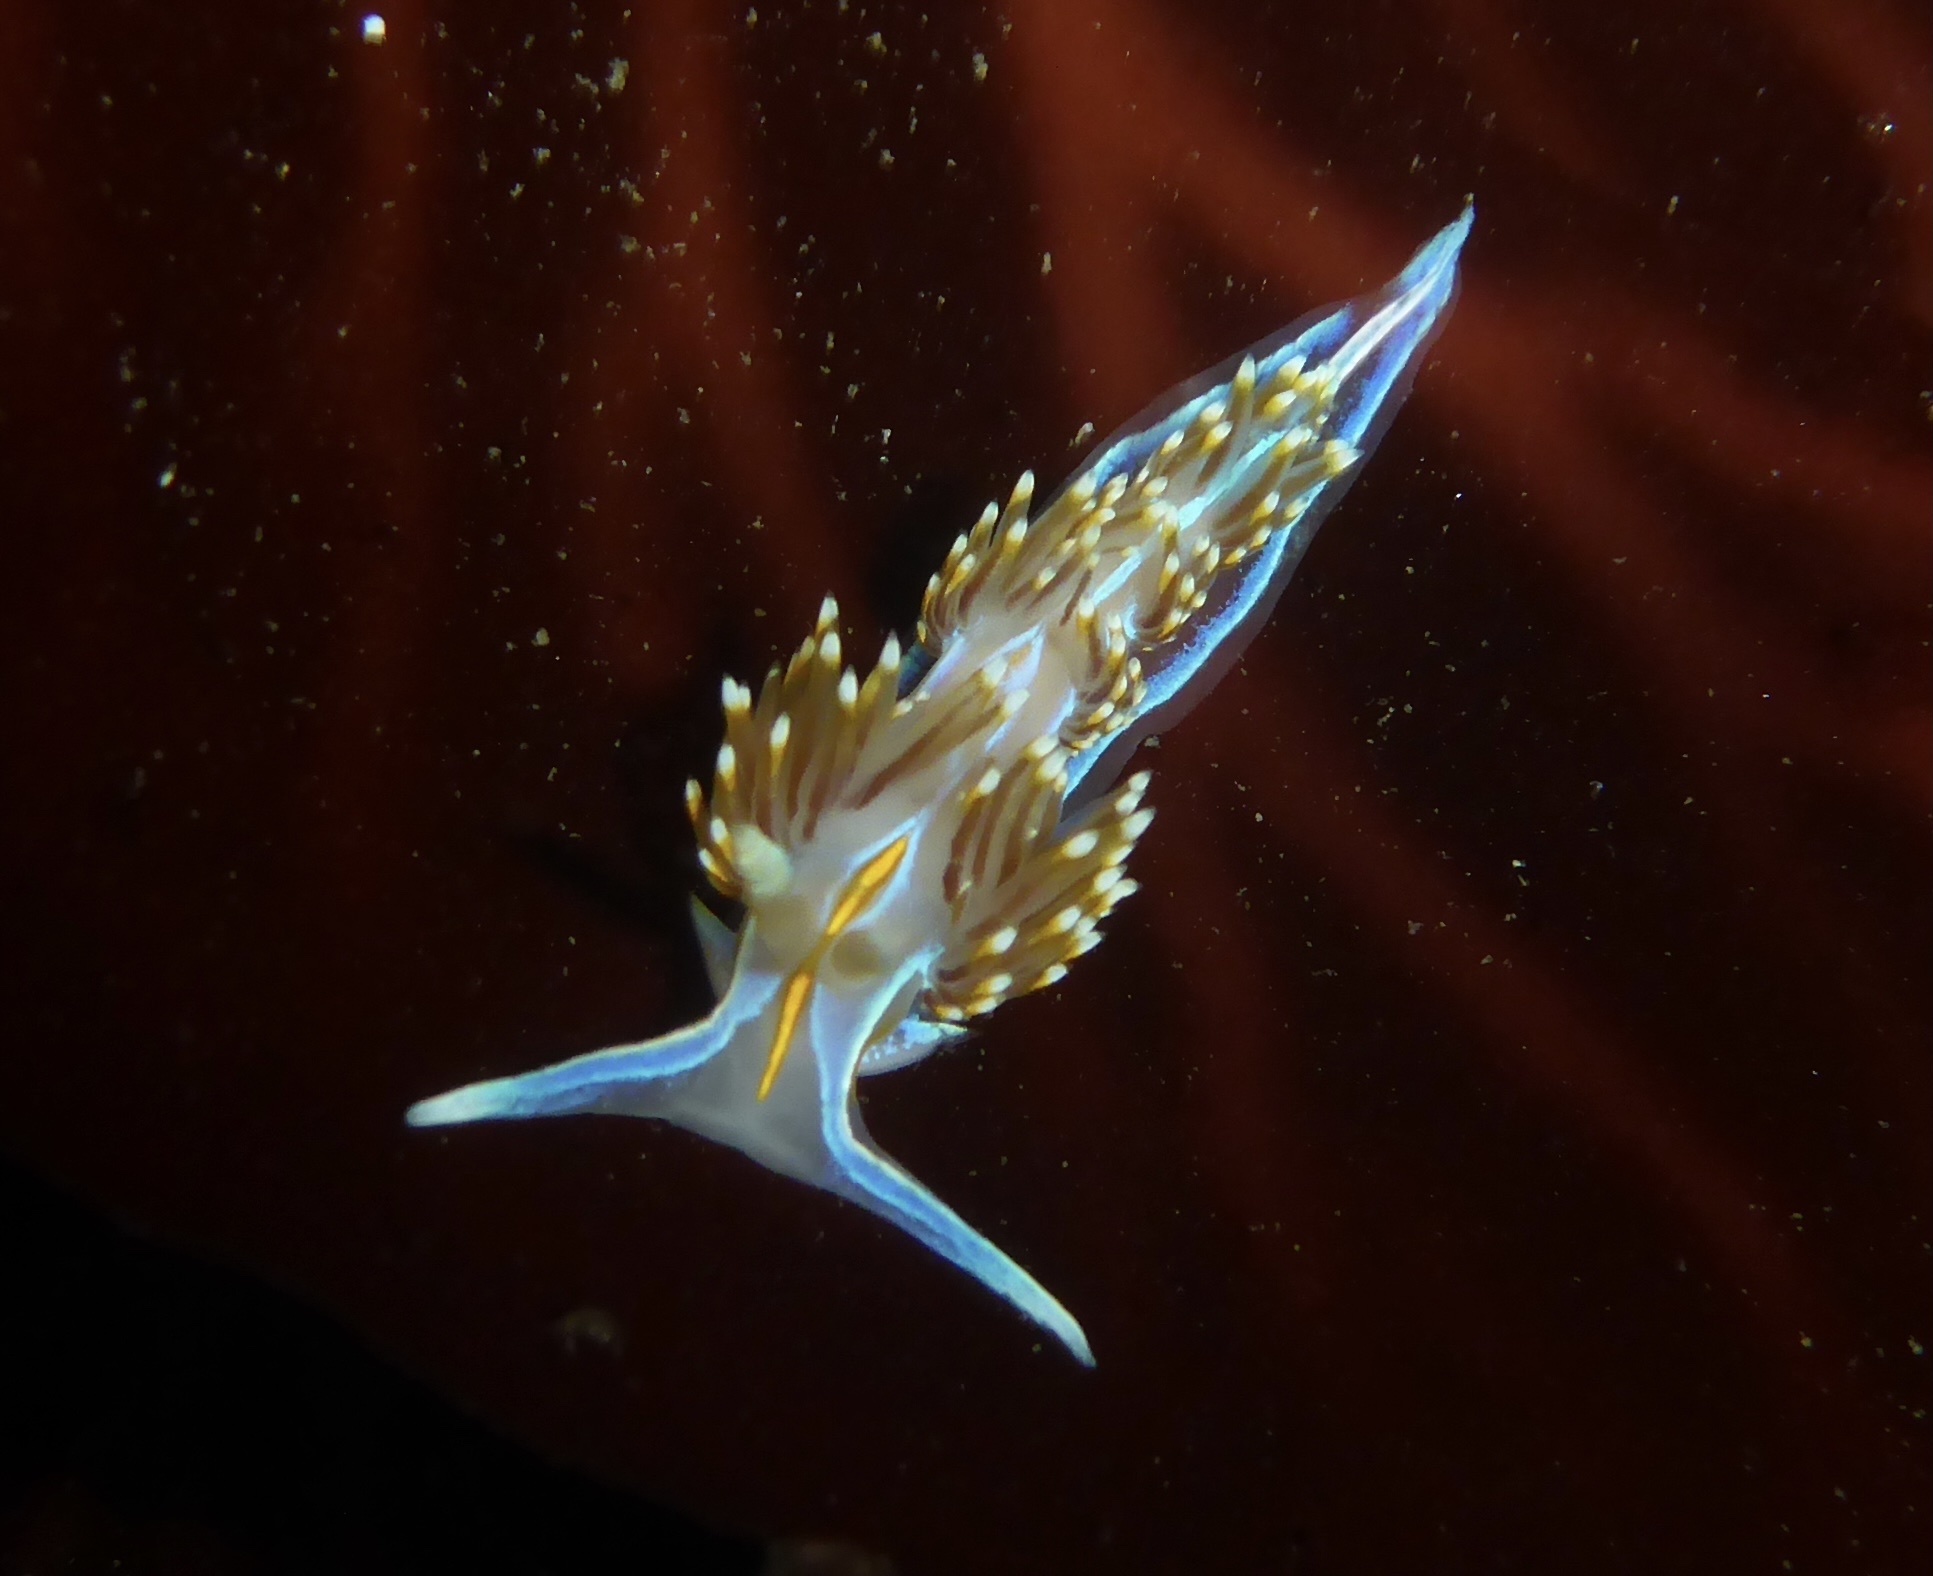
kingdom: Animalia
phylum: Mollusca
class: Gastropoda
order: Nudibranchia
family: Myrrhinidae
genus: Hermissenda
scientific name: Hermissenda opalescens
